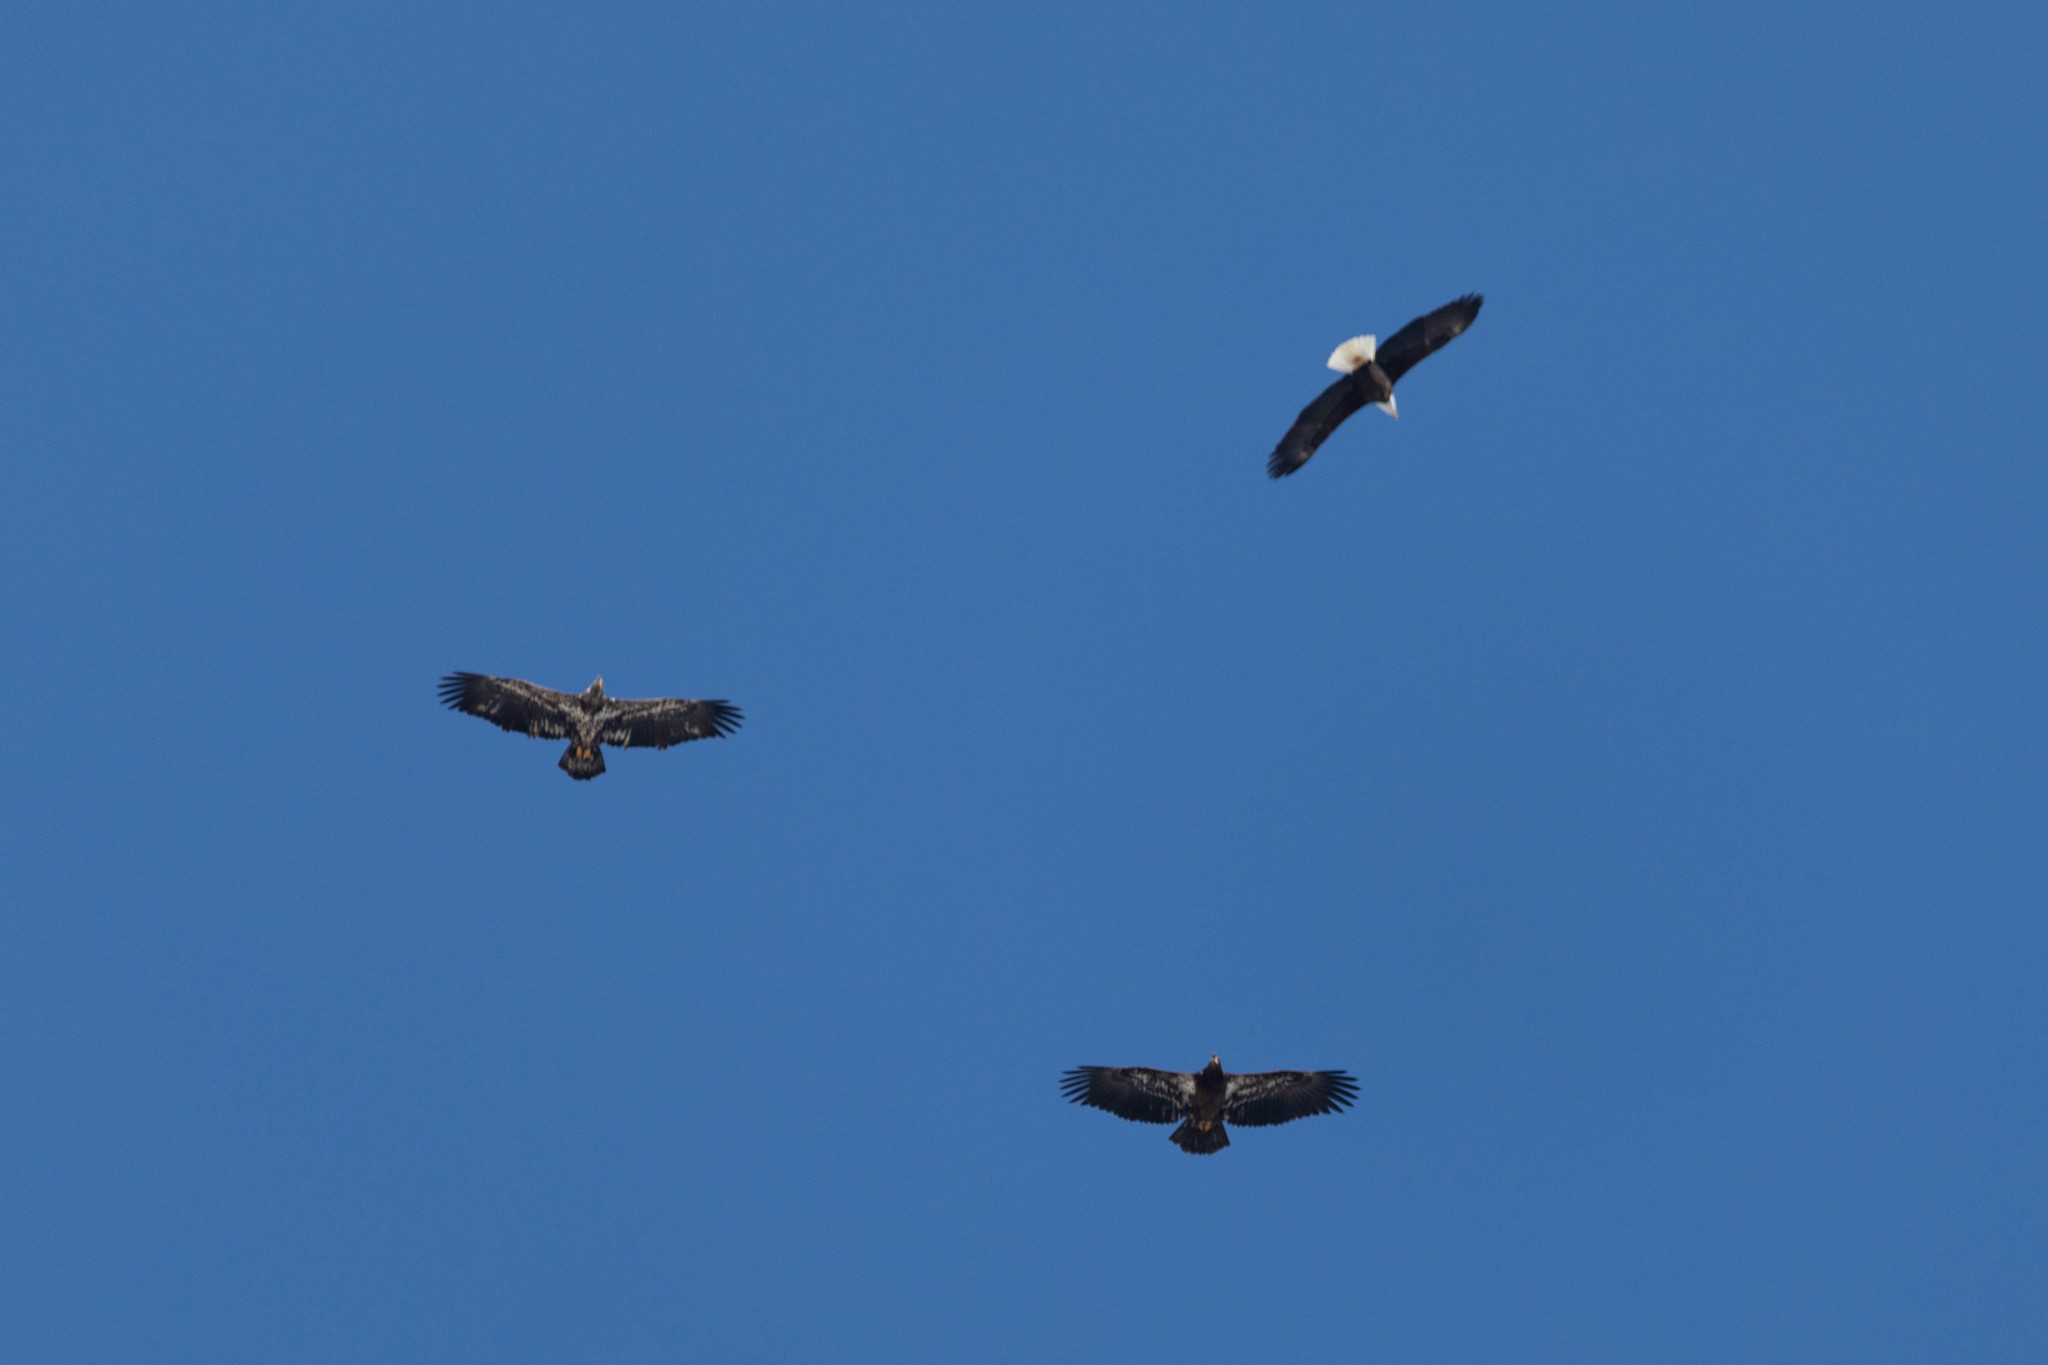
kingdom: Animalia
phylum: Chordata
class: Aves
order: Accipitriformes
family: Accipitridae
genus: Haliaeetus
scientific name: Haliaeetus leucocephalus
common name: Bald eagle
